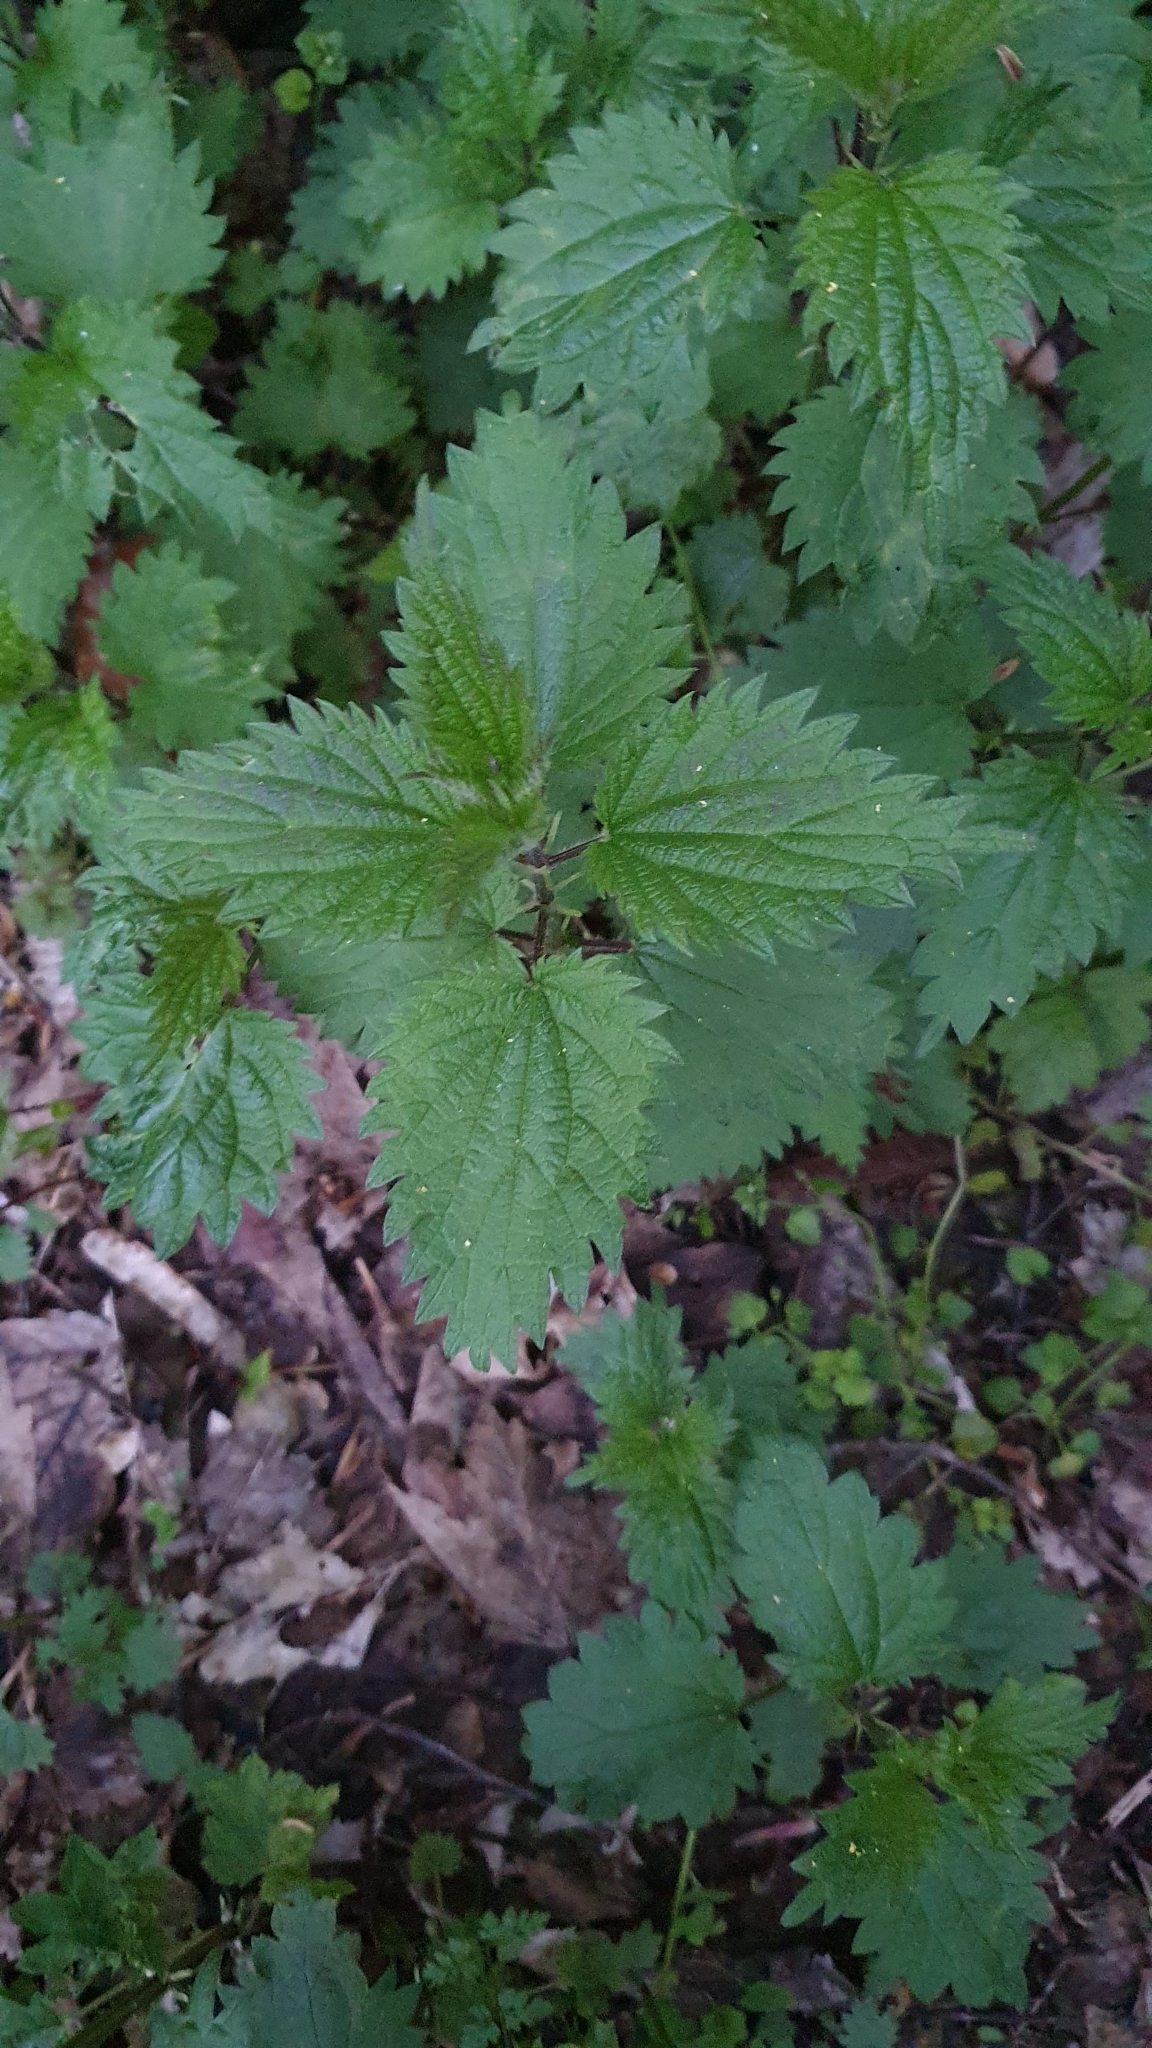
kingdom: Plantae
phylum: Tracheophyta
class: Magnoliopsida
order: Rosales
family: Urticaceae
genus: Urtica
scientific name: Urtica dioica
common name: Common nettle
